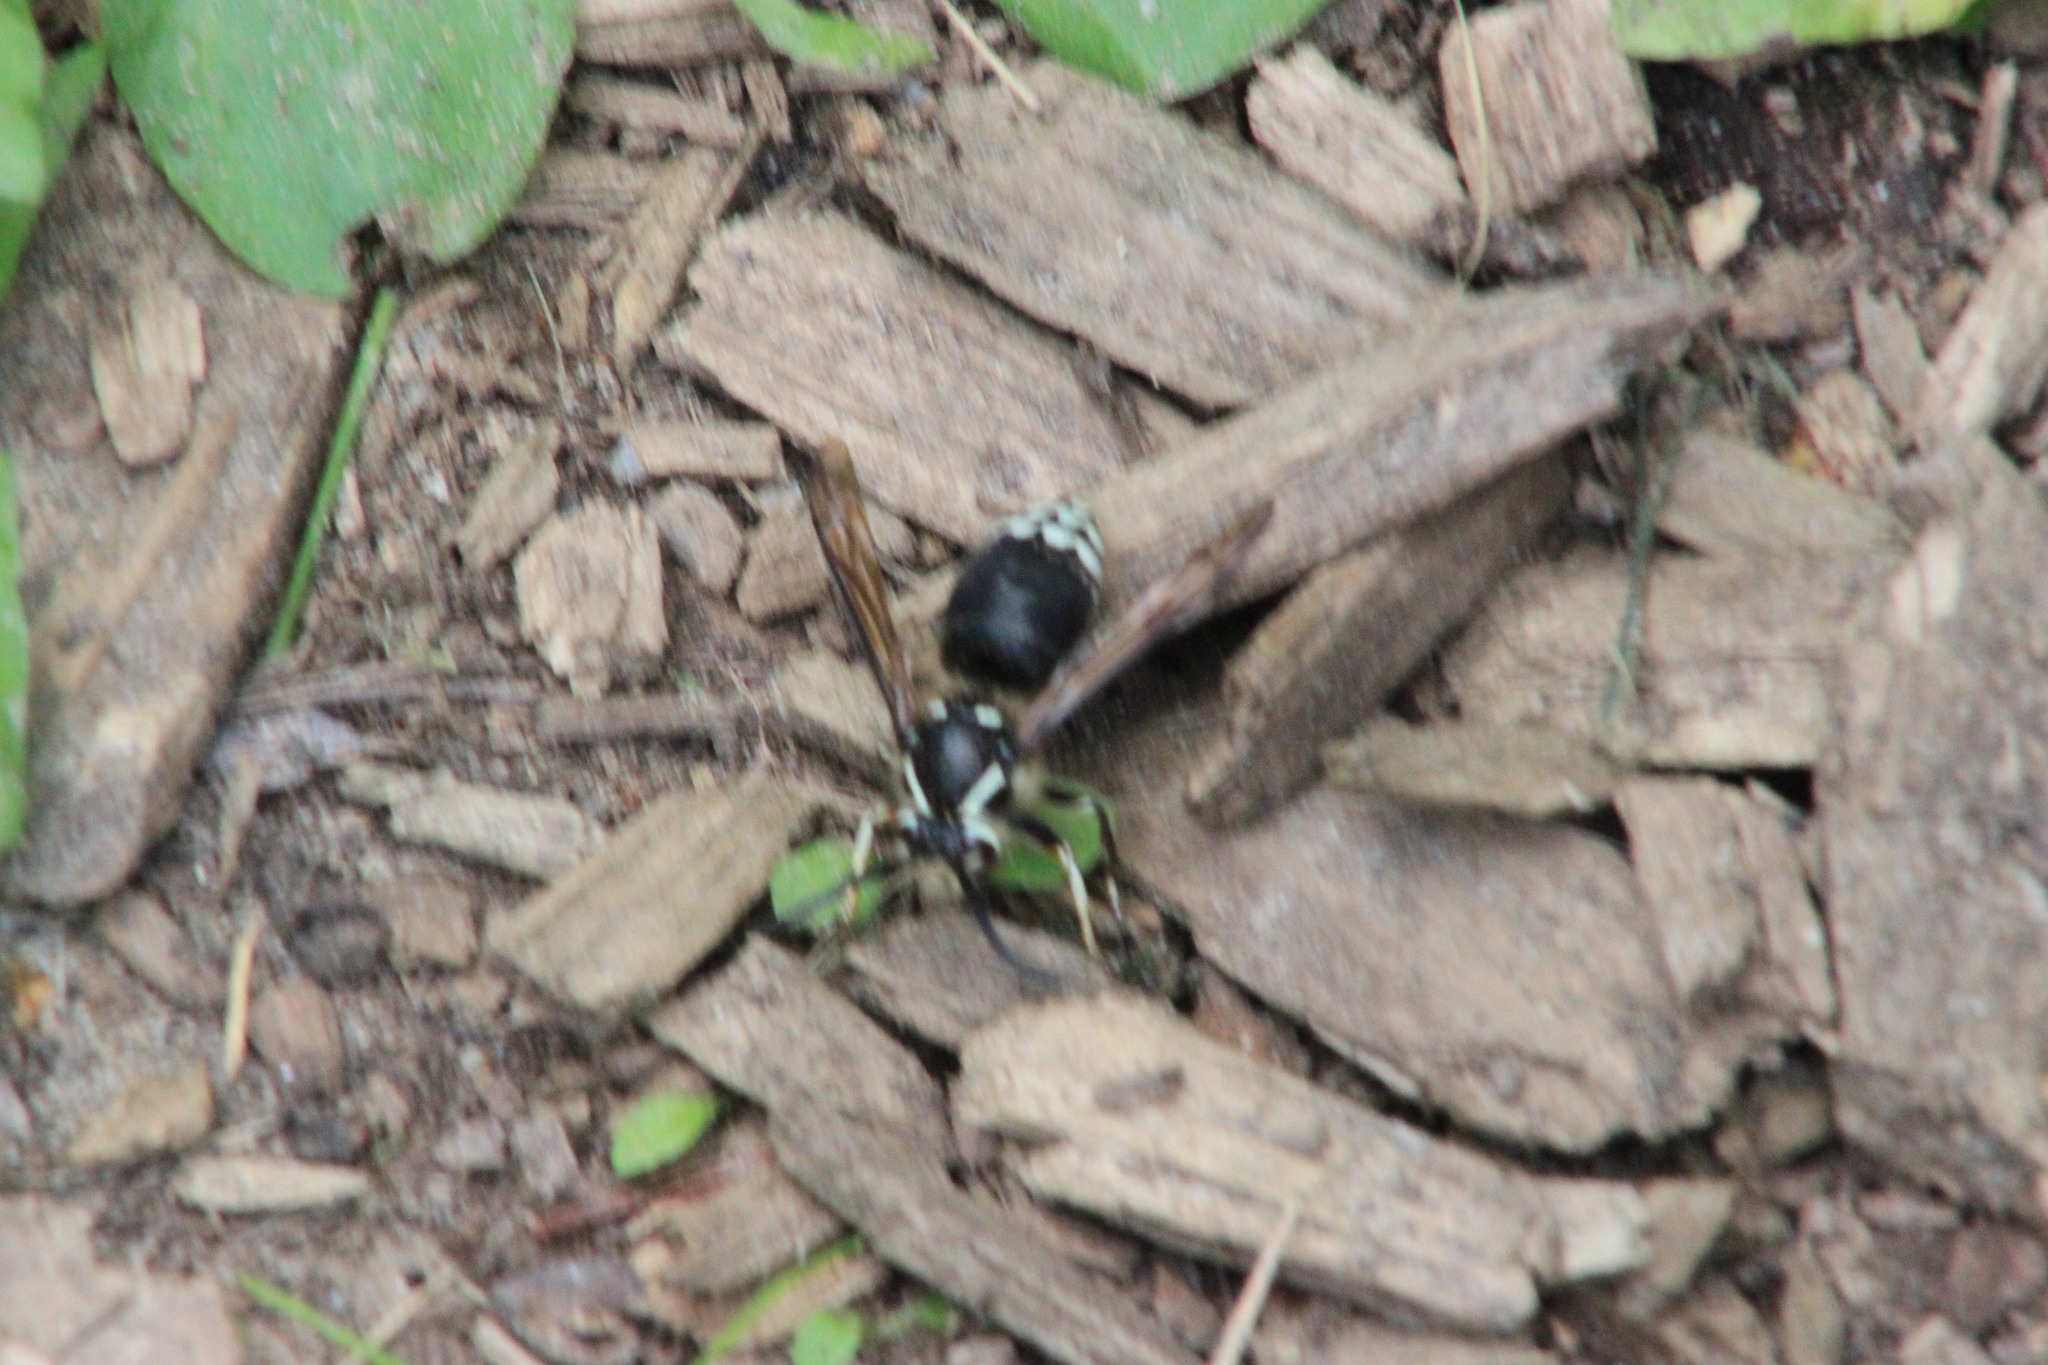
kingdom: Animalia
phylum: Arthropoda
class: Insecta
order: Hymenoptera
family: Vespidae
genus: Dolichovespula
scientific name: Dolichovespula maculata
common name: Bald-faced hornet
